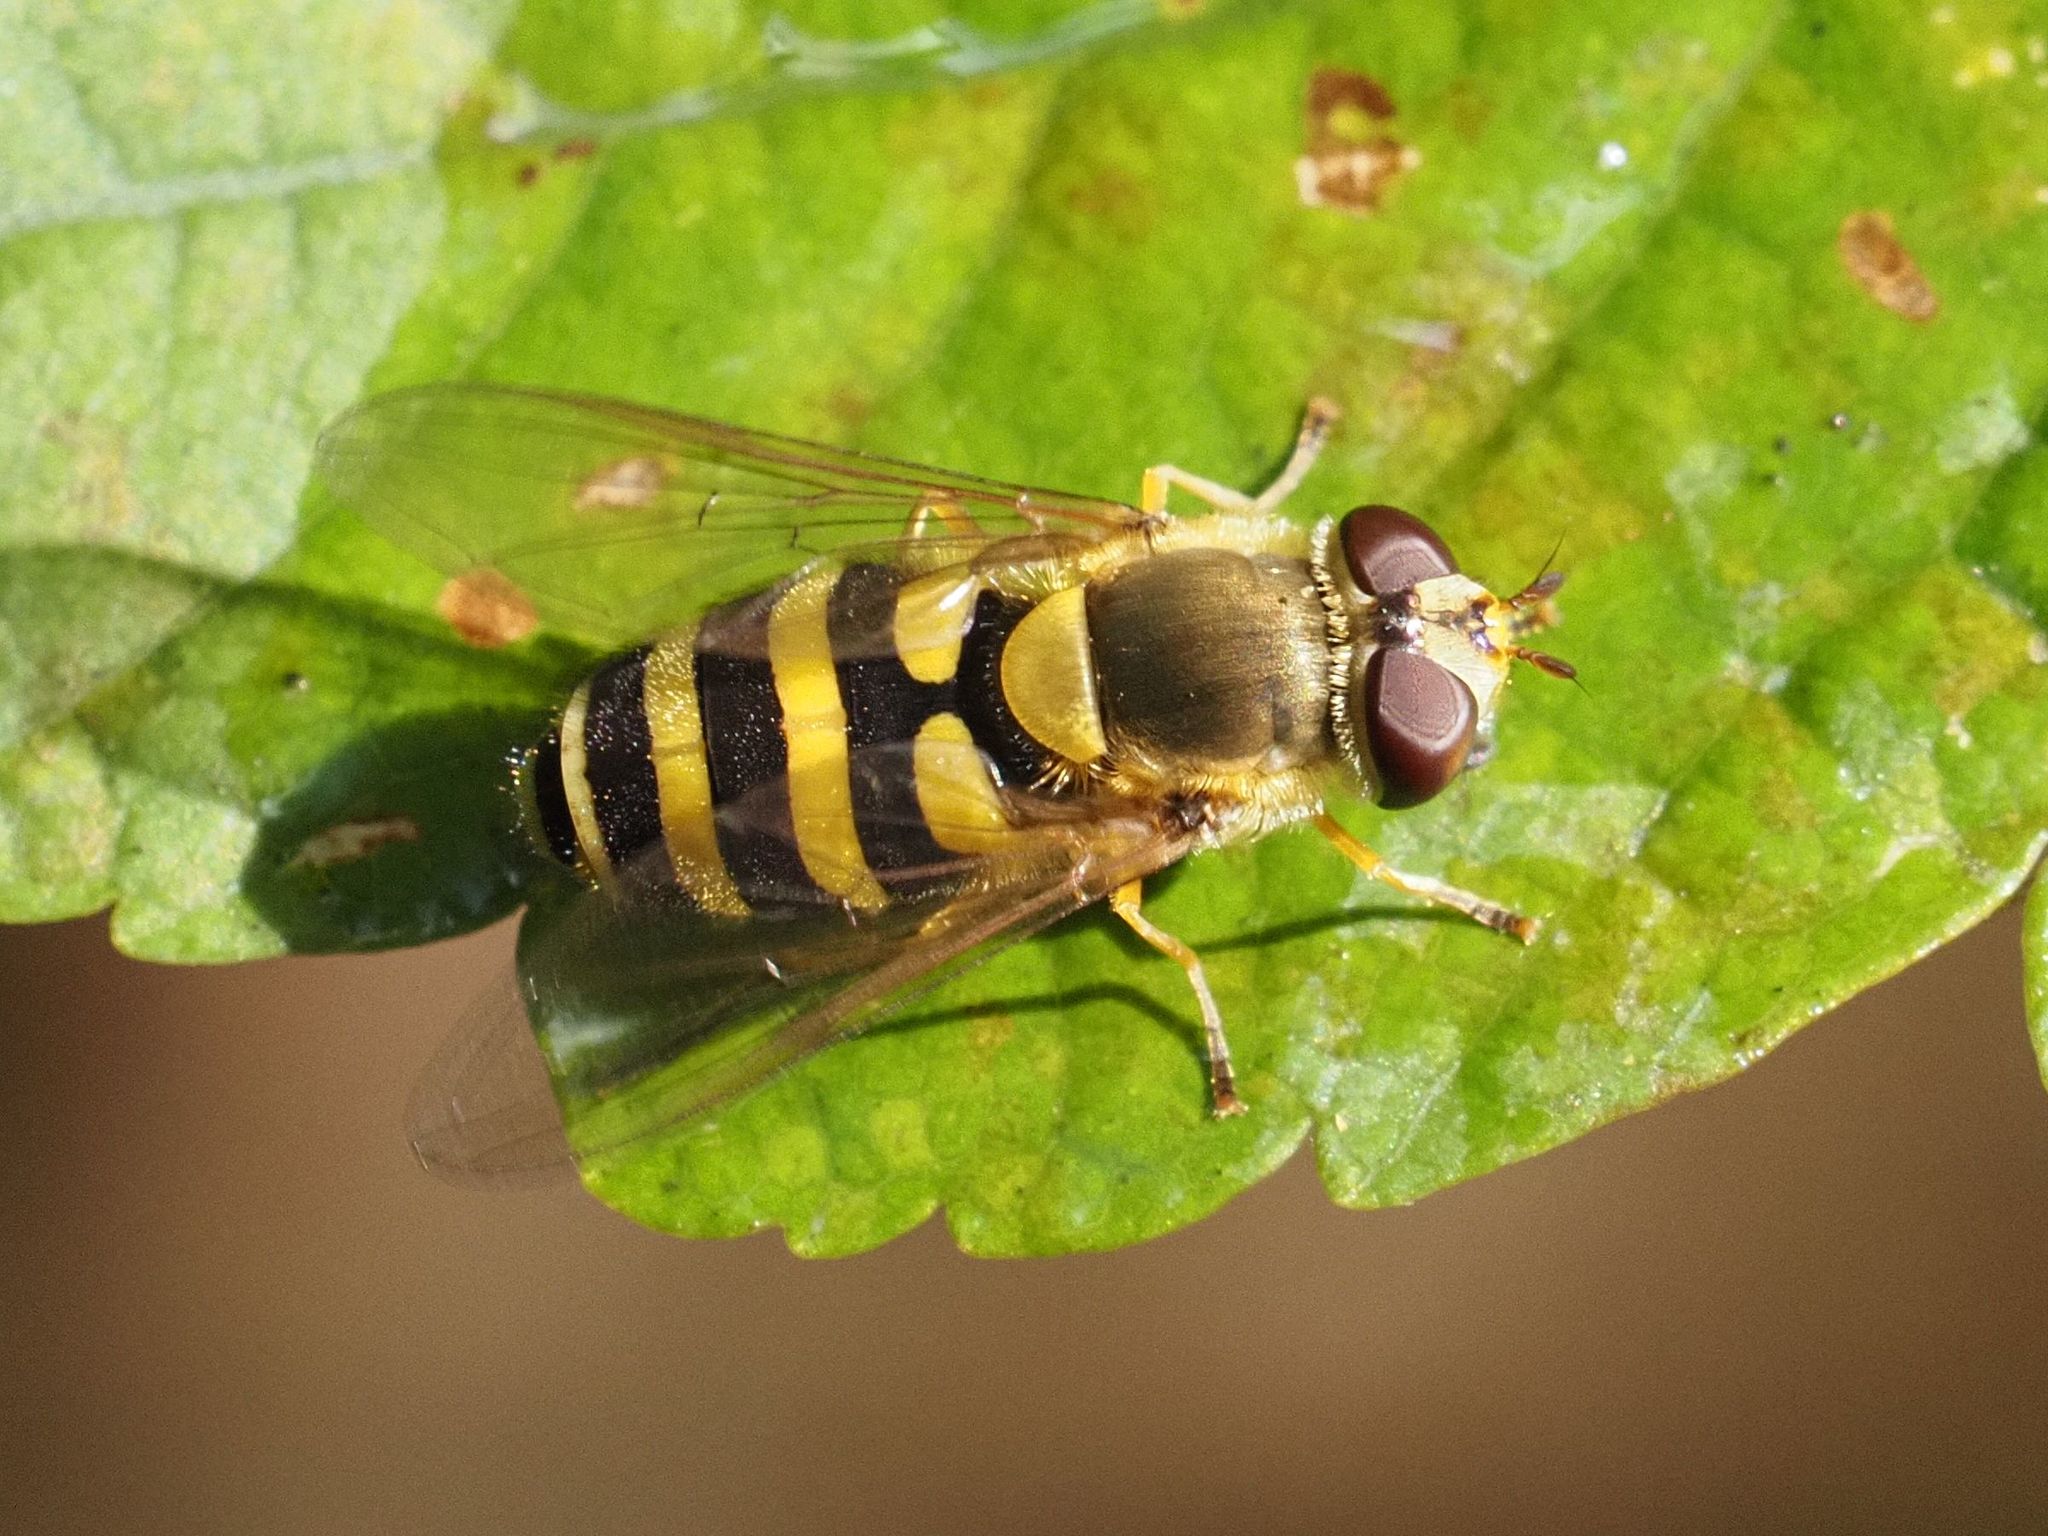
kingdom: Animalia
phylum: Arthropoda
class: Insecta
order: Diptera
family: Syrphidae
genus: Syrphus
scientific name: Syrphus ribesii
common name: Common flower fly
